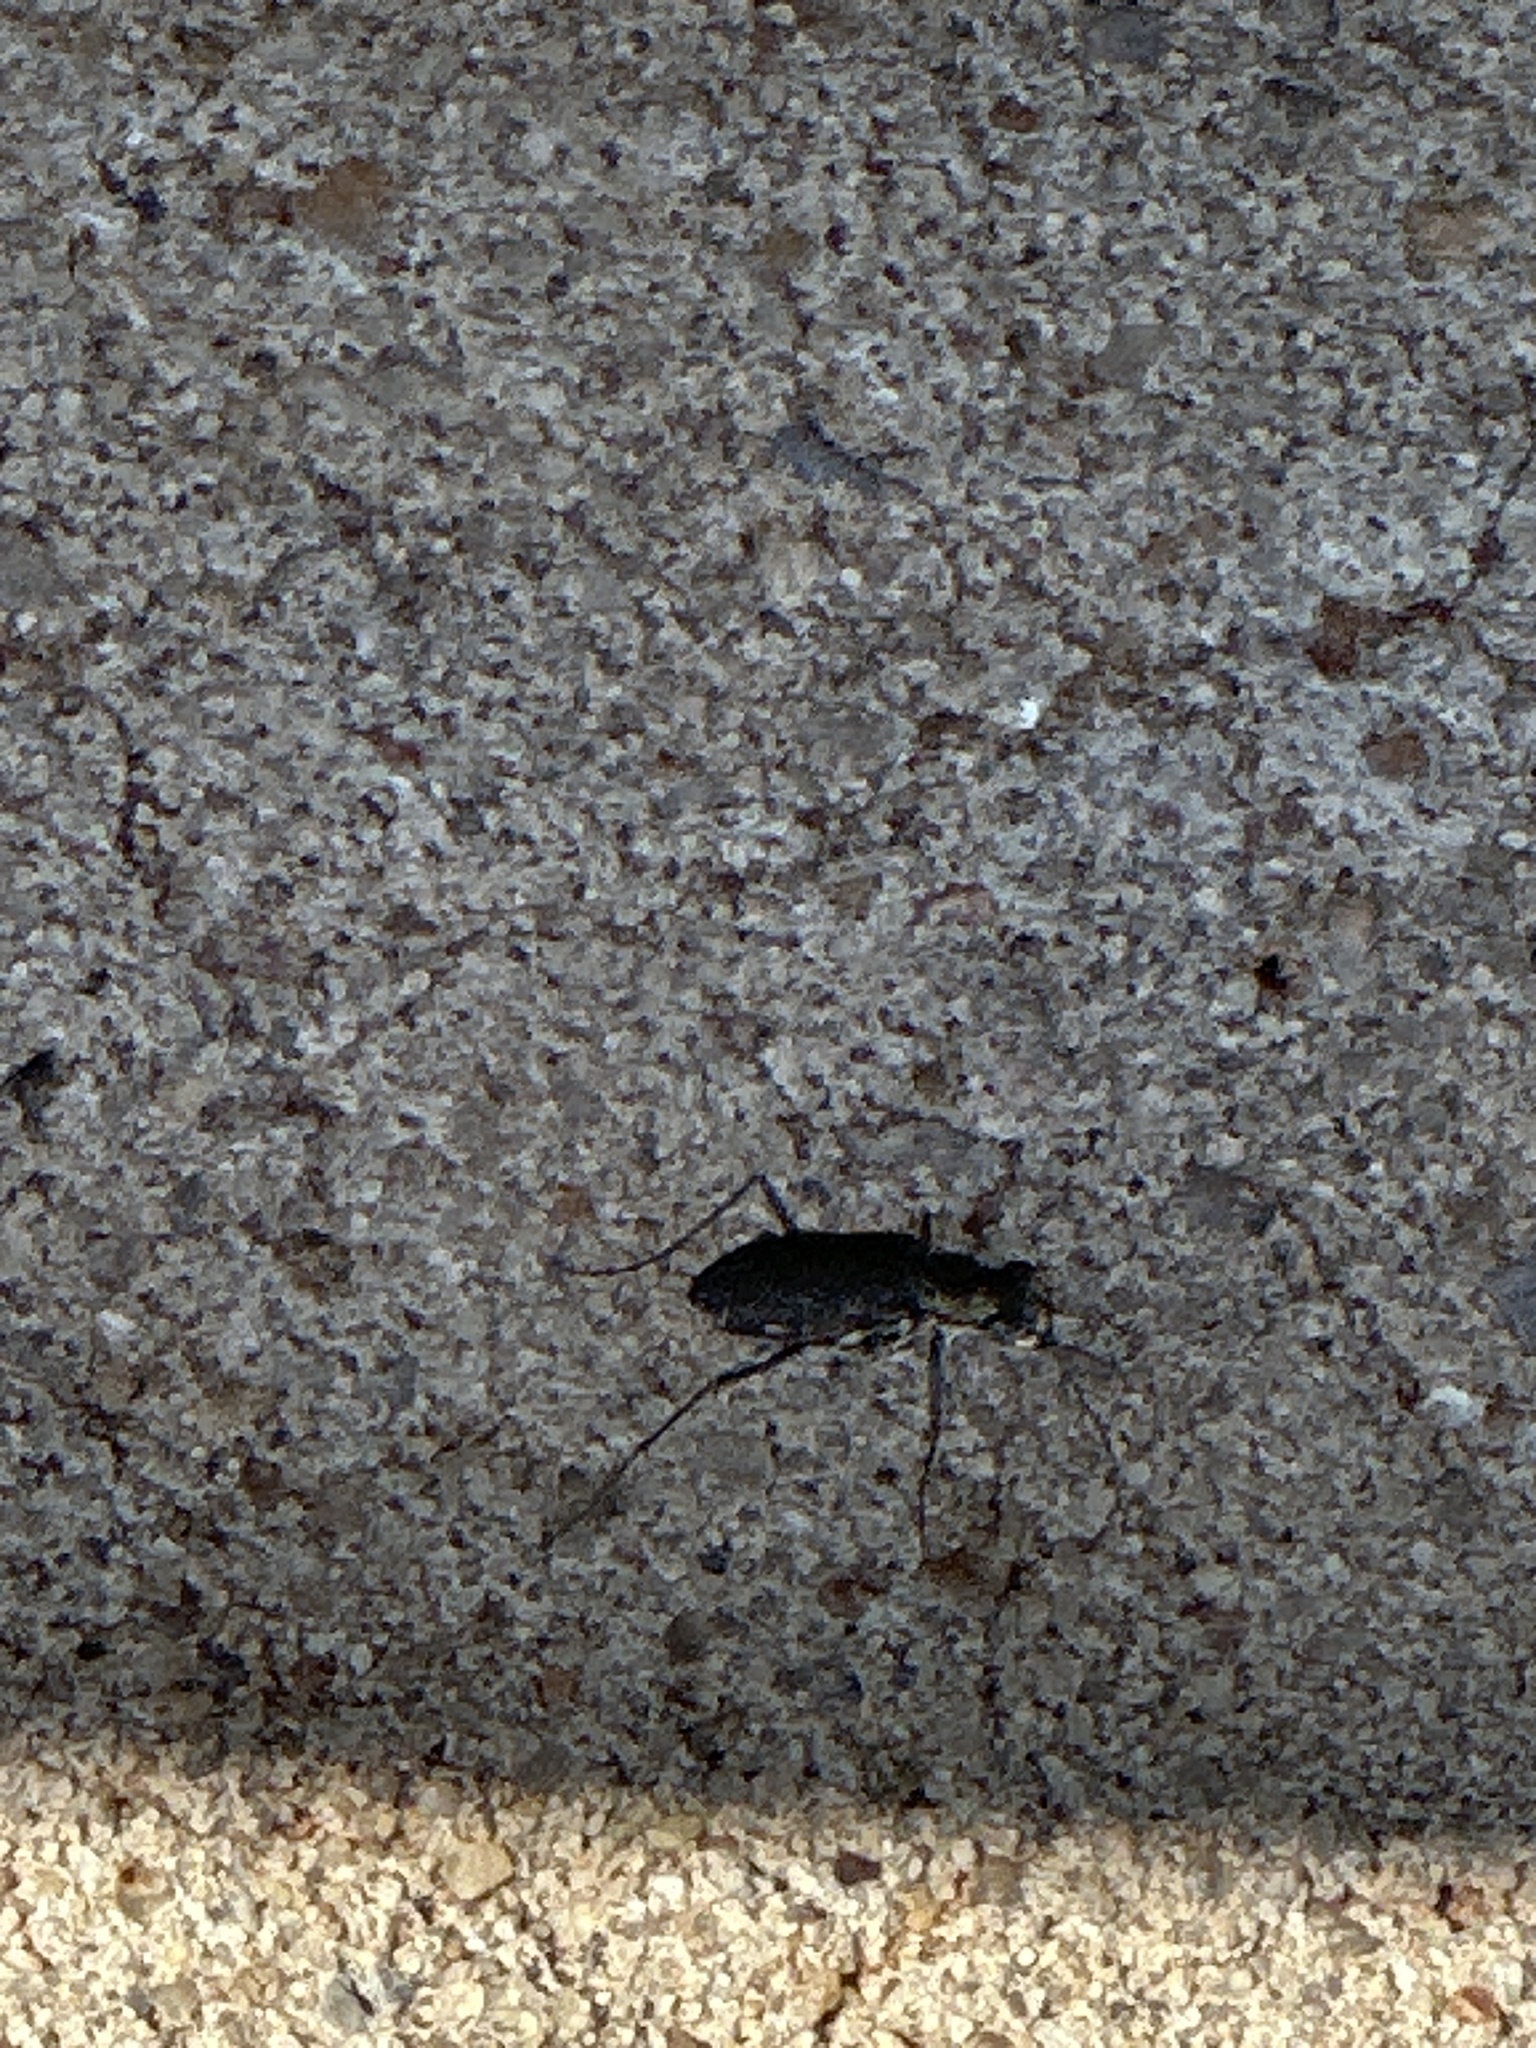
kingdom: Animalia
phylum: Arthropoda
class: Insecta
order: Coleoptera
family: Carabidae
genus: Cicindela
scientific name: Cicindela punctulata
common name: Punctured tiger beetle
